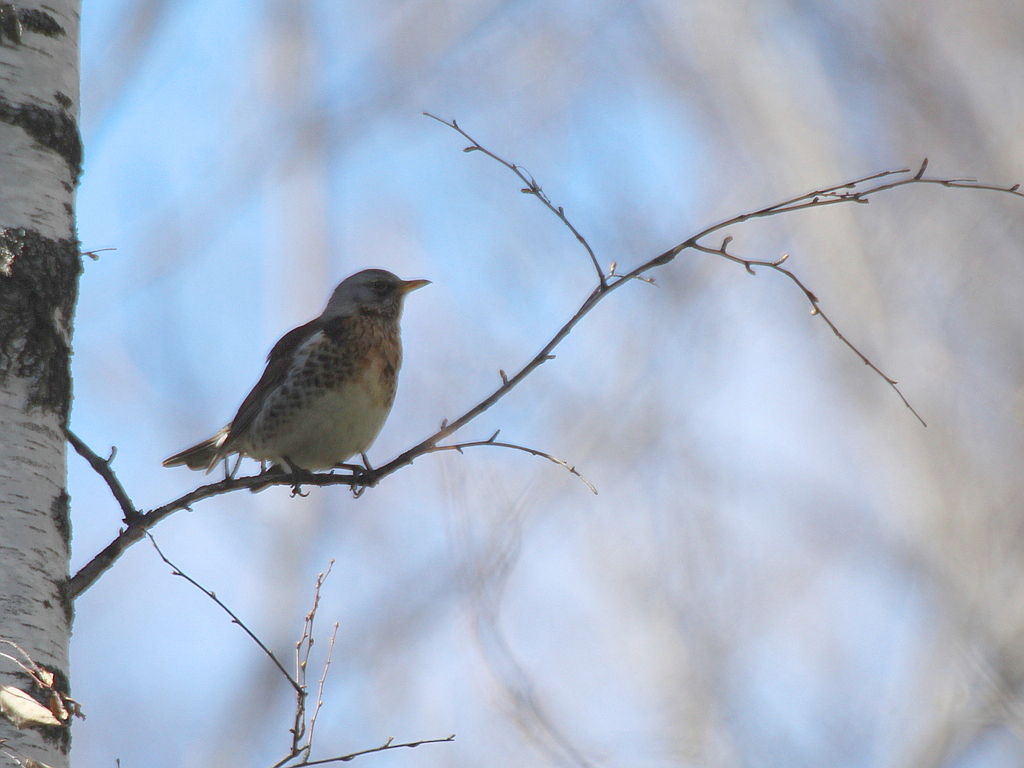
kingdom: Animalia
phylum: Chordata
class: Aves
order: Passeriformes
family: Turdidae
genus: Turdus
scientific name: Turdus pilaris
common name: Fieldfare
